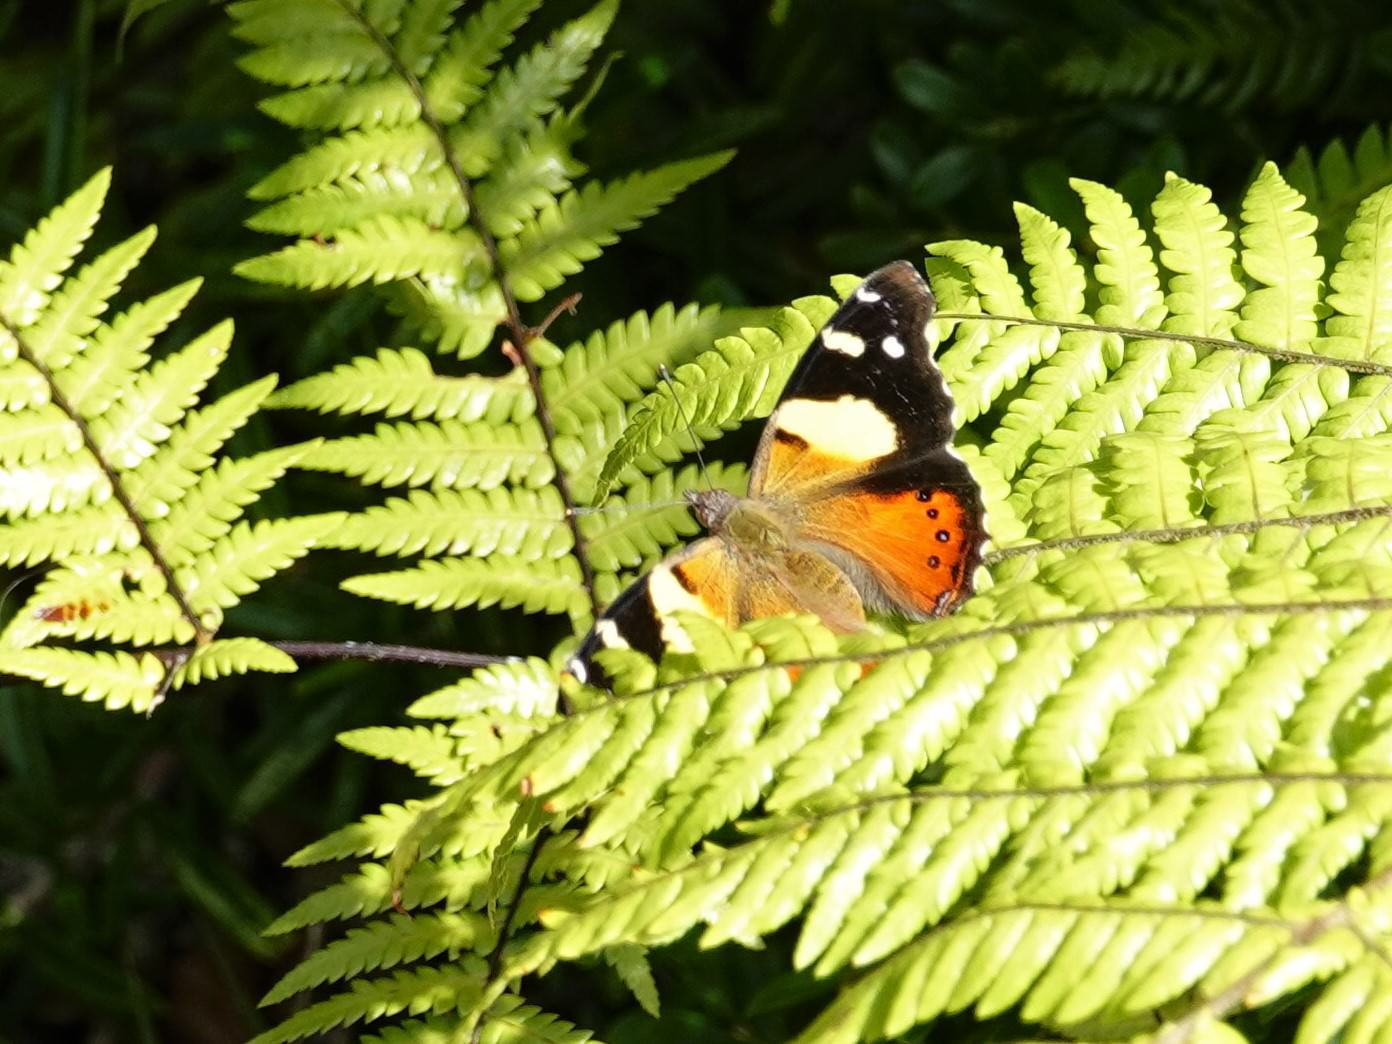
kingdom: Animalia
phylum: Arthropoda
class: Insecta
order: Lepidoptera
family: Nymphalidae
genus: Vanessa
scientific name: Vanessa itea
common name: Yellow admiral
